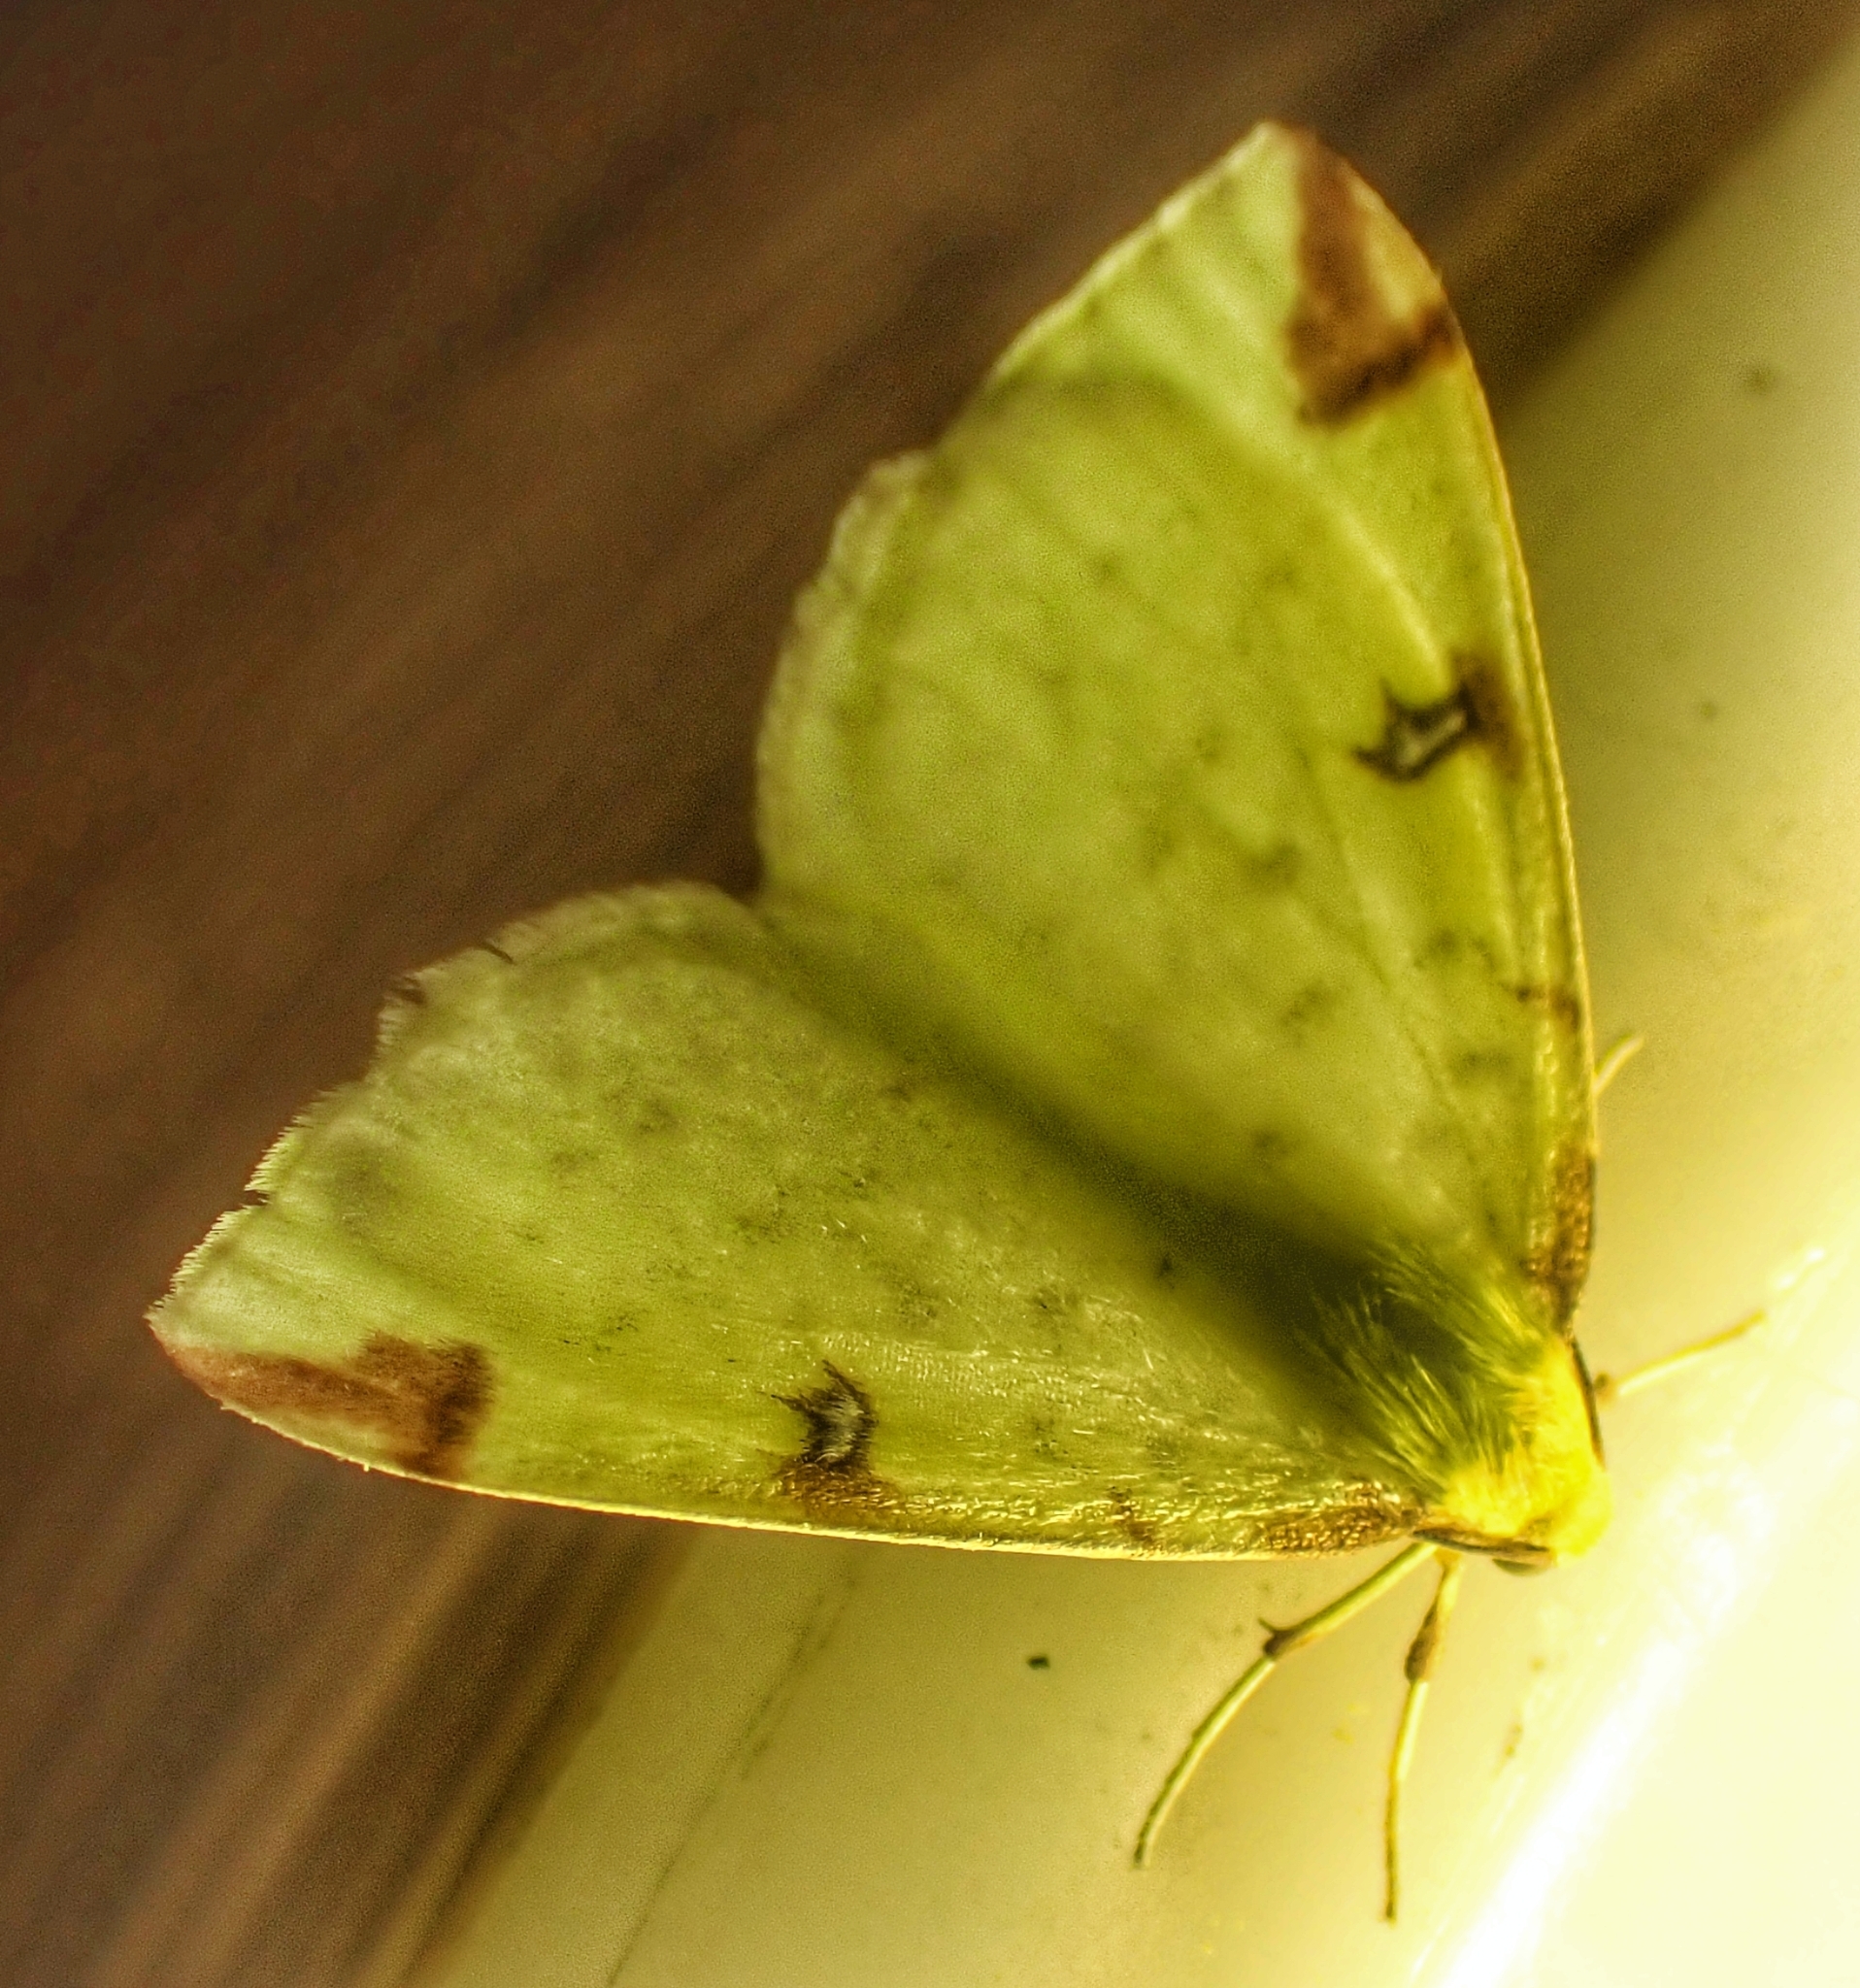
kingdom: Animalia
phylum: Arthropoda
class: Insecta
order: Lepidoptera
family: Geometridae
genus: Opisthograptis
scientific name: Opisthograptis luteolata
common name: Brimstone moth
